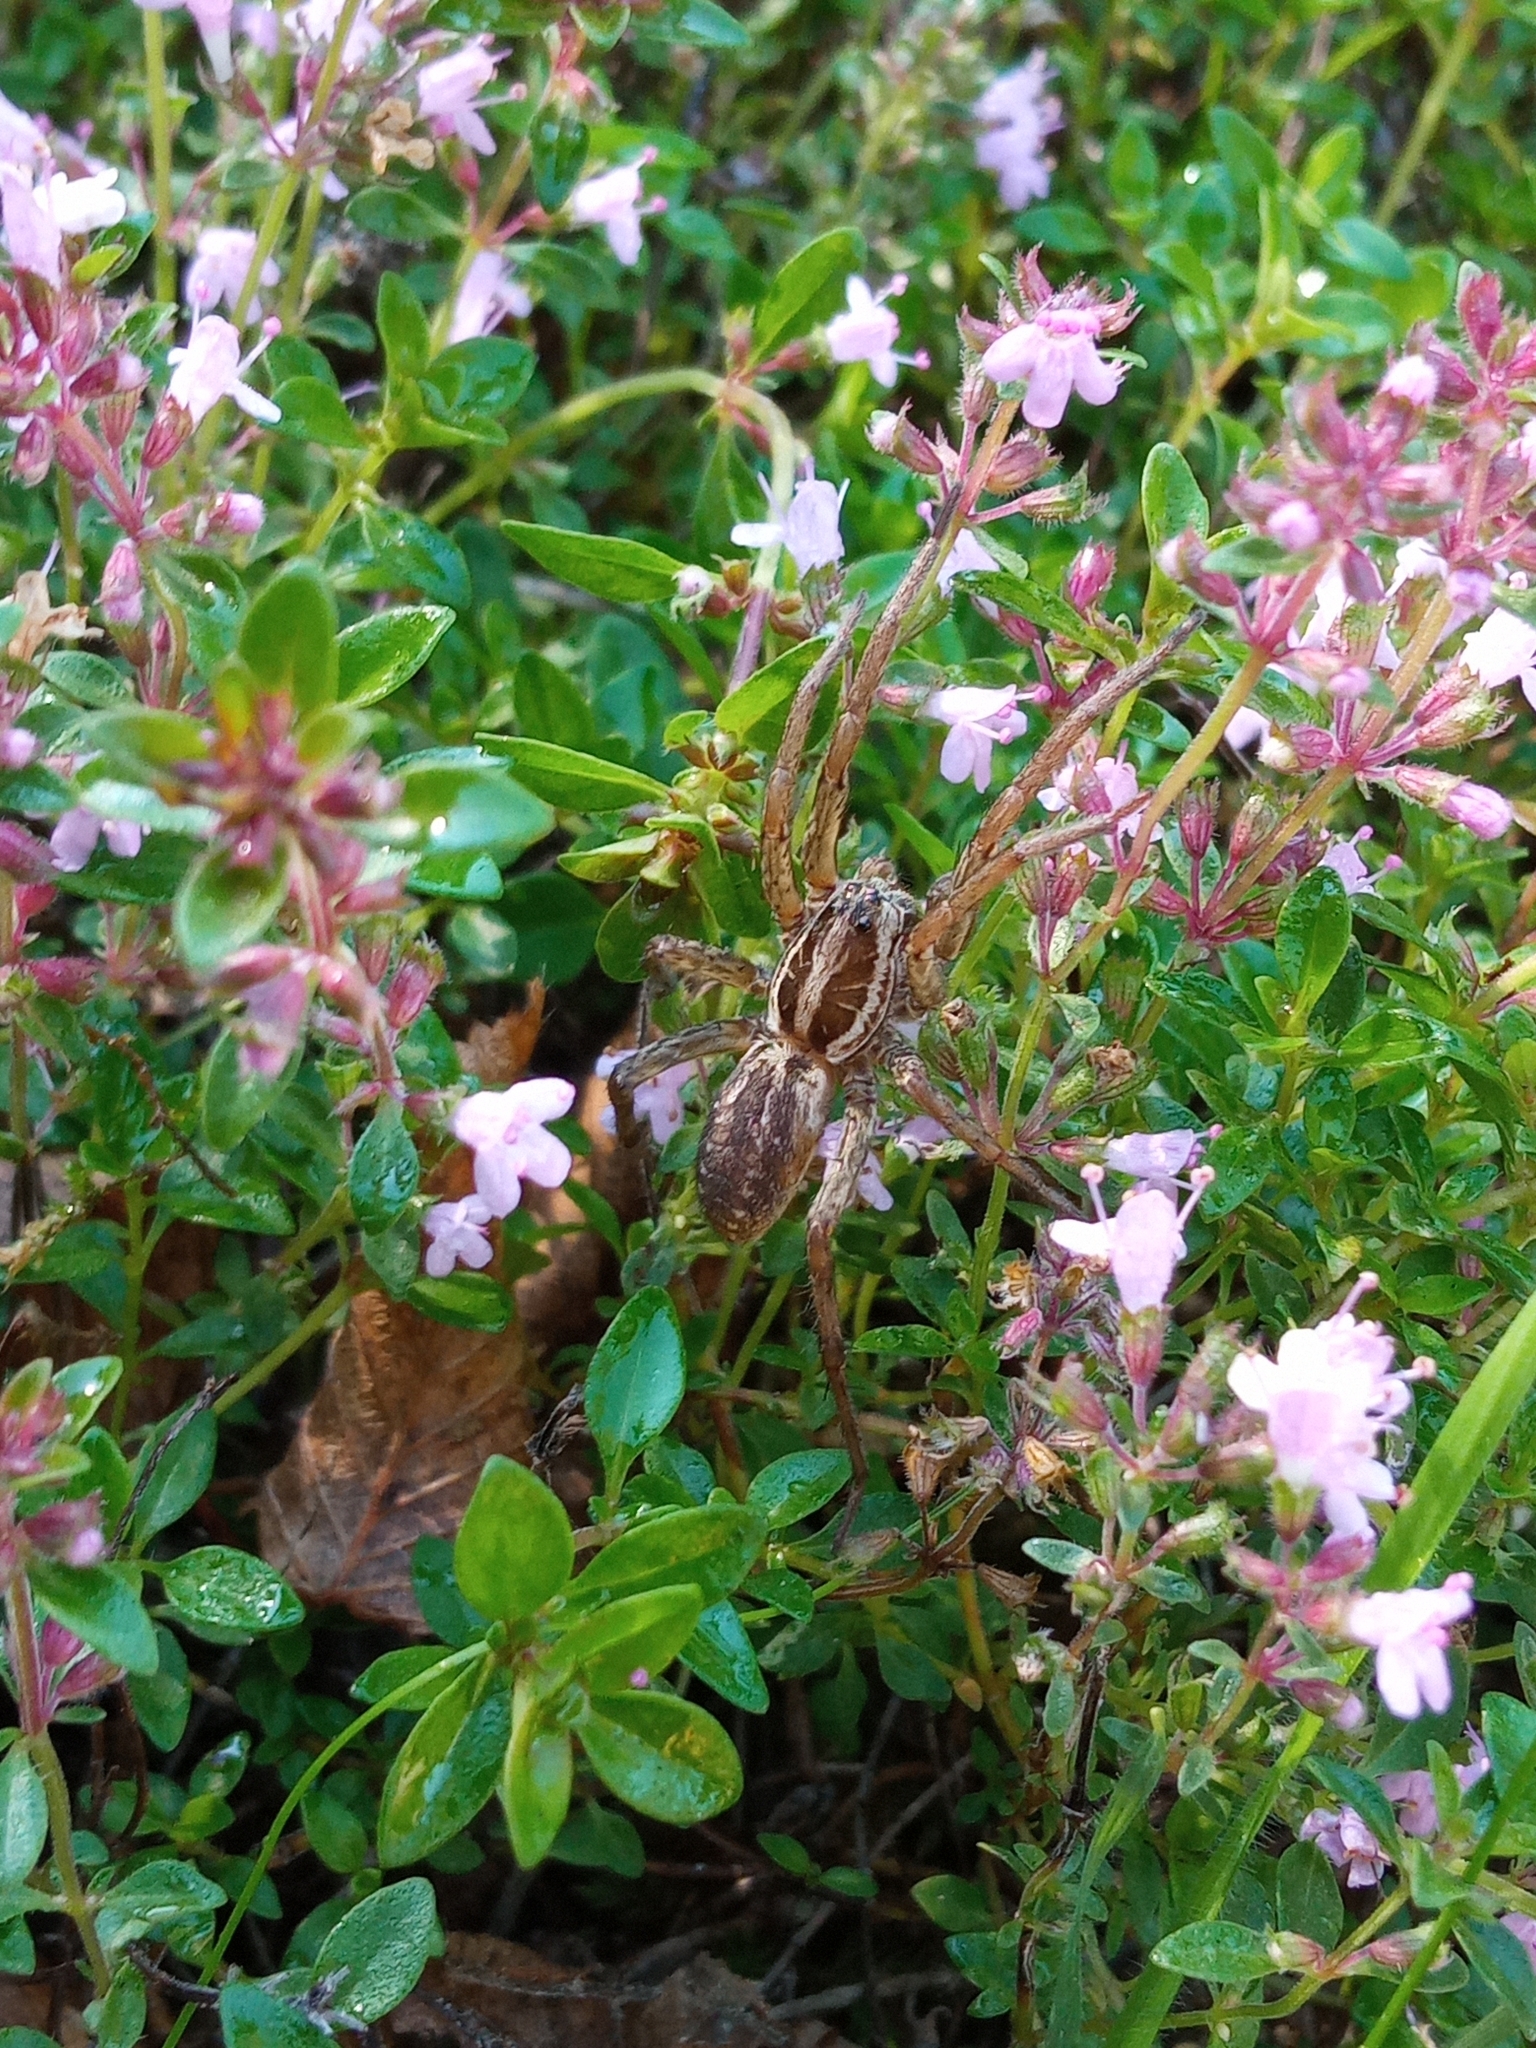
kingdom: Animalia
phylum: Arthropoda
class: Arachnida
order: Araneae
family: Lycosidae
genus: Hogna
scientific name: Hogna radiata
